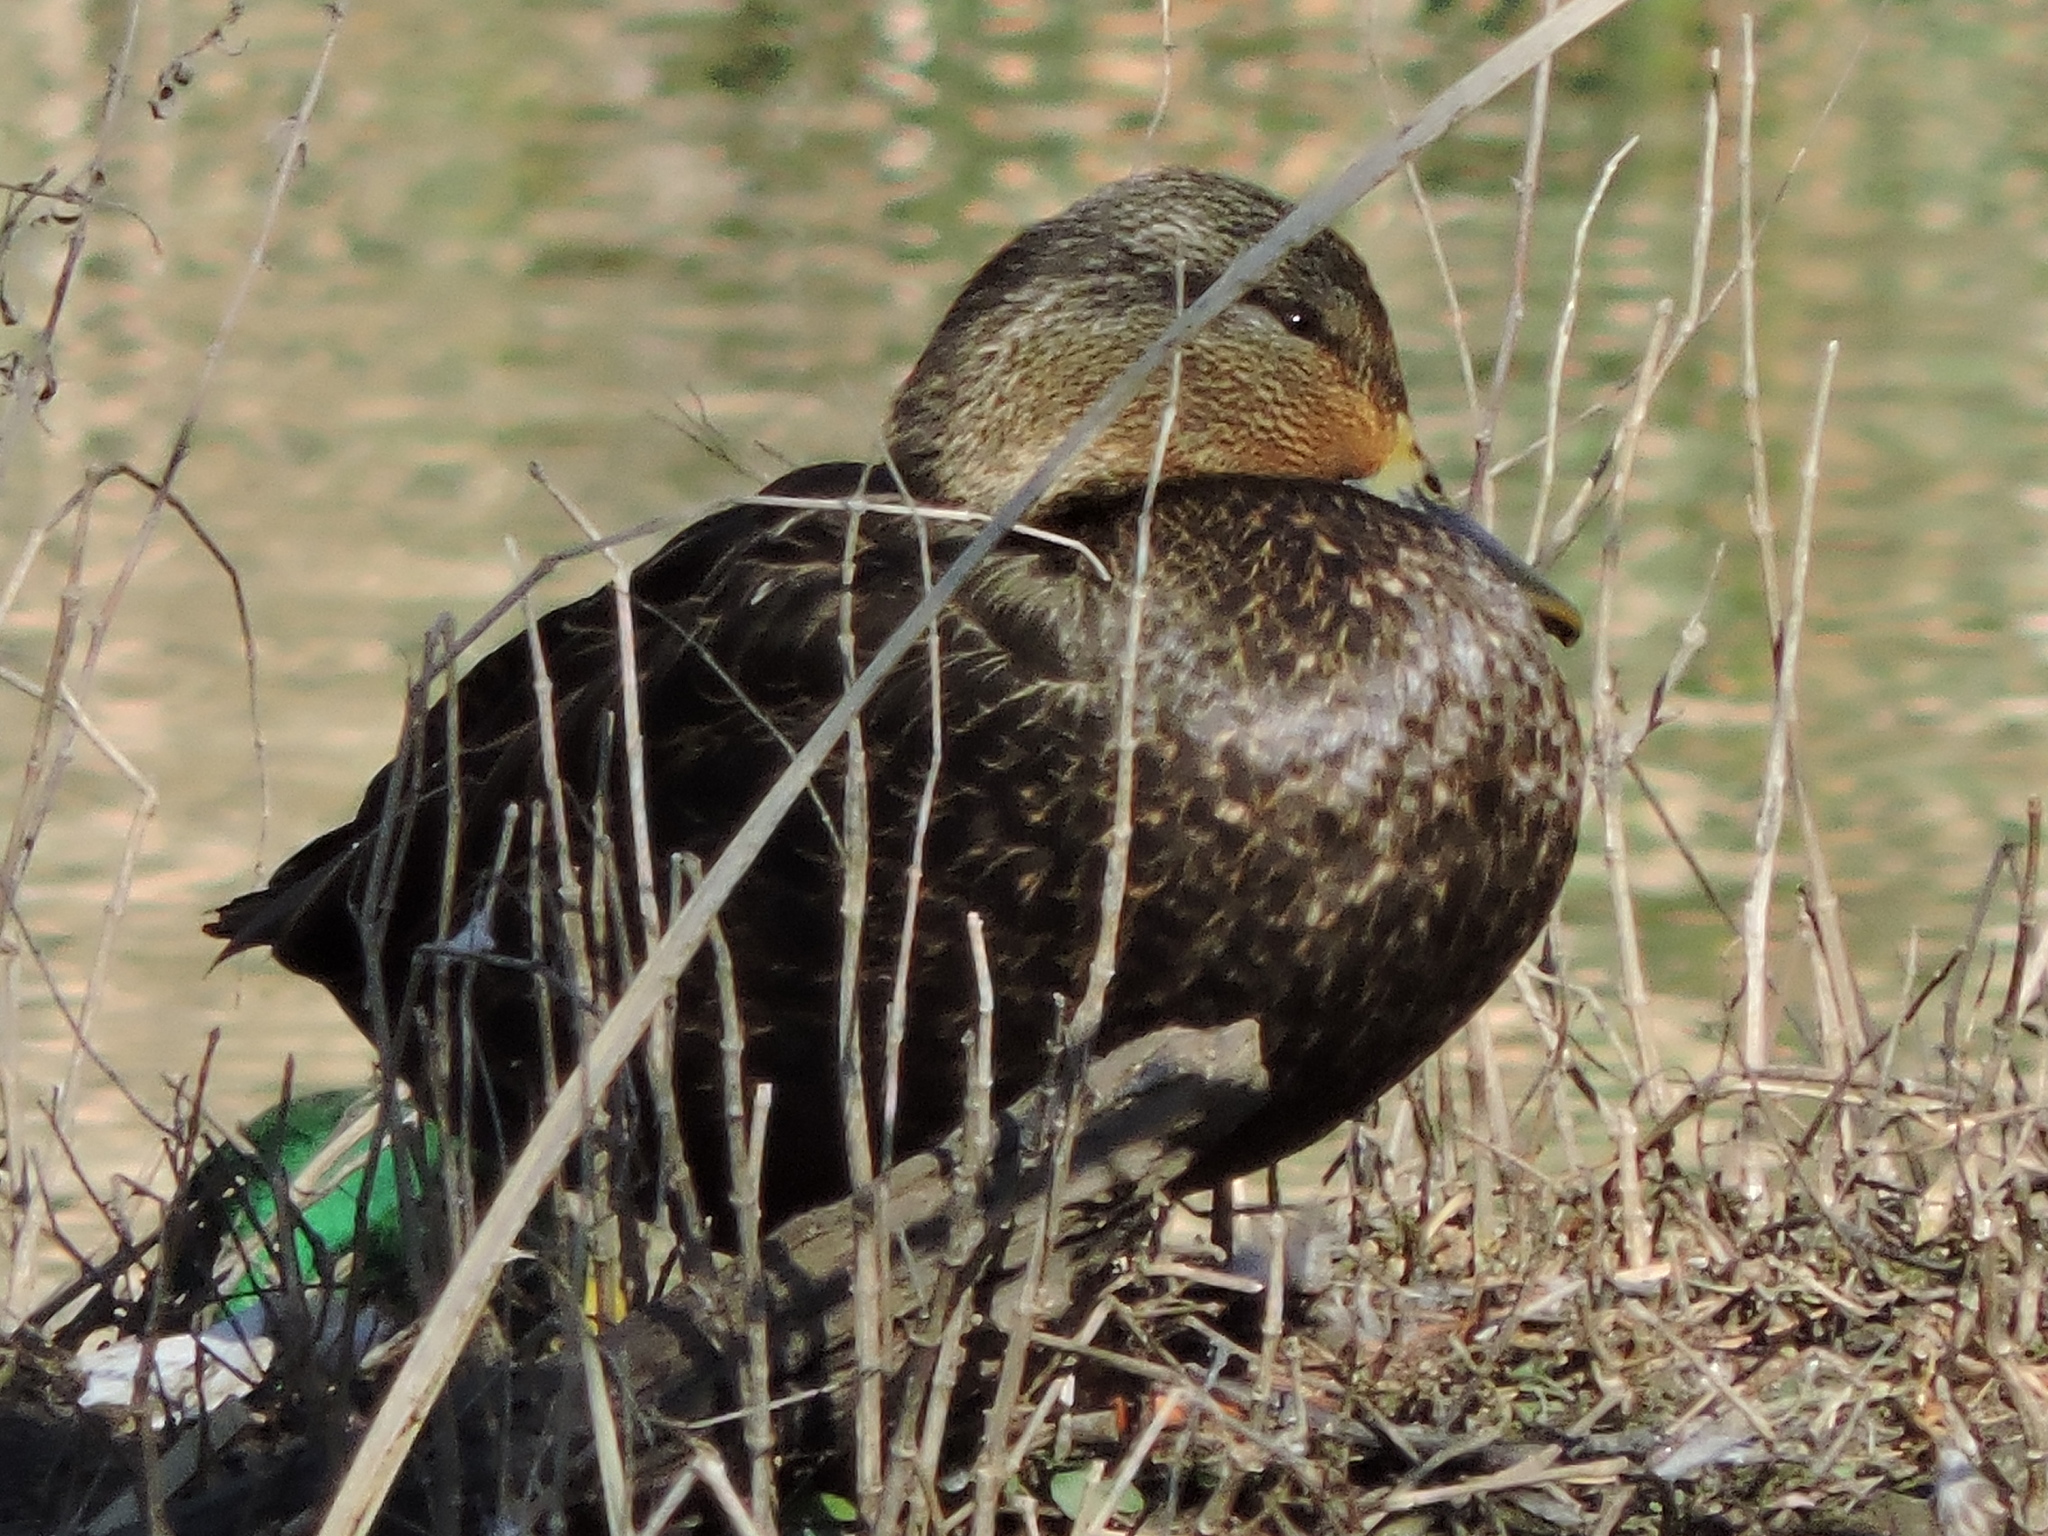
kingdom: Animalia
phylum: Chordata
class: Aves
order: Anseriformes
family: Anatidae
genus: Anas
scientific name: Anas rubripes
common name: American black duck
